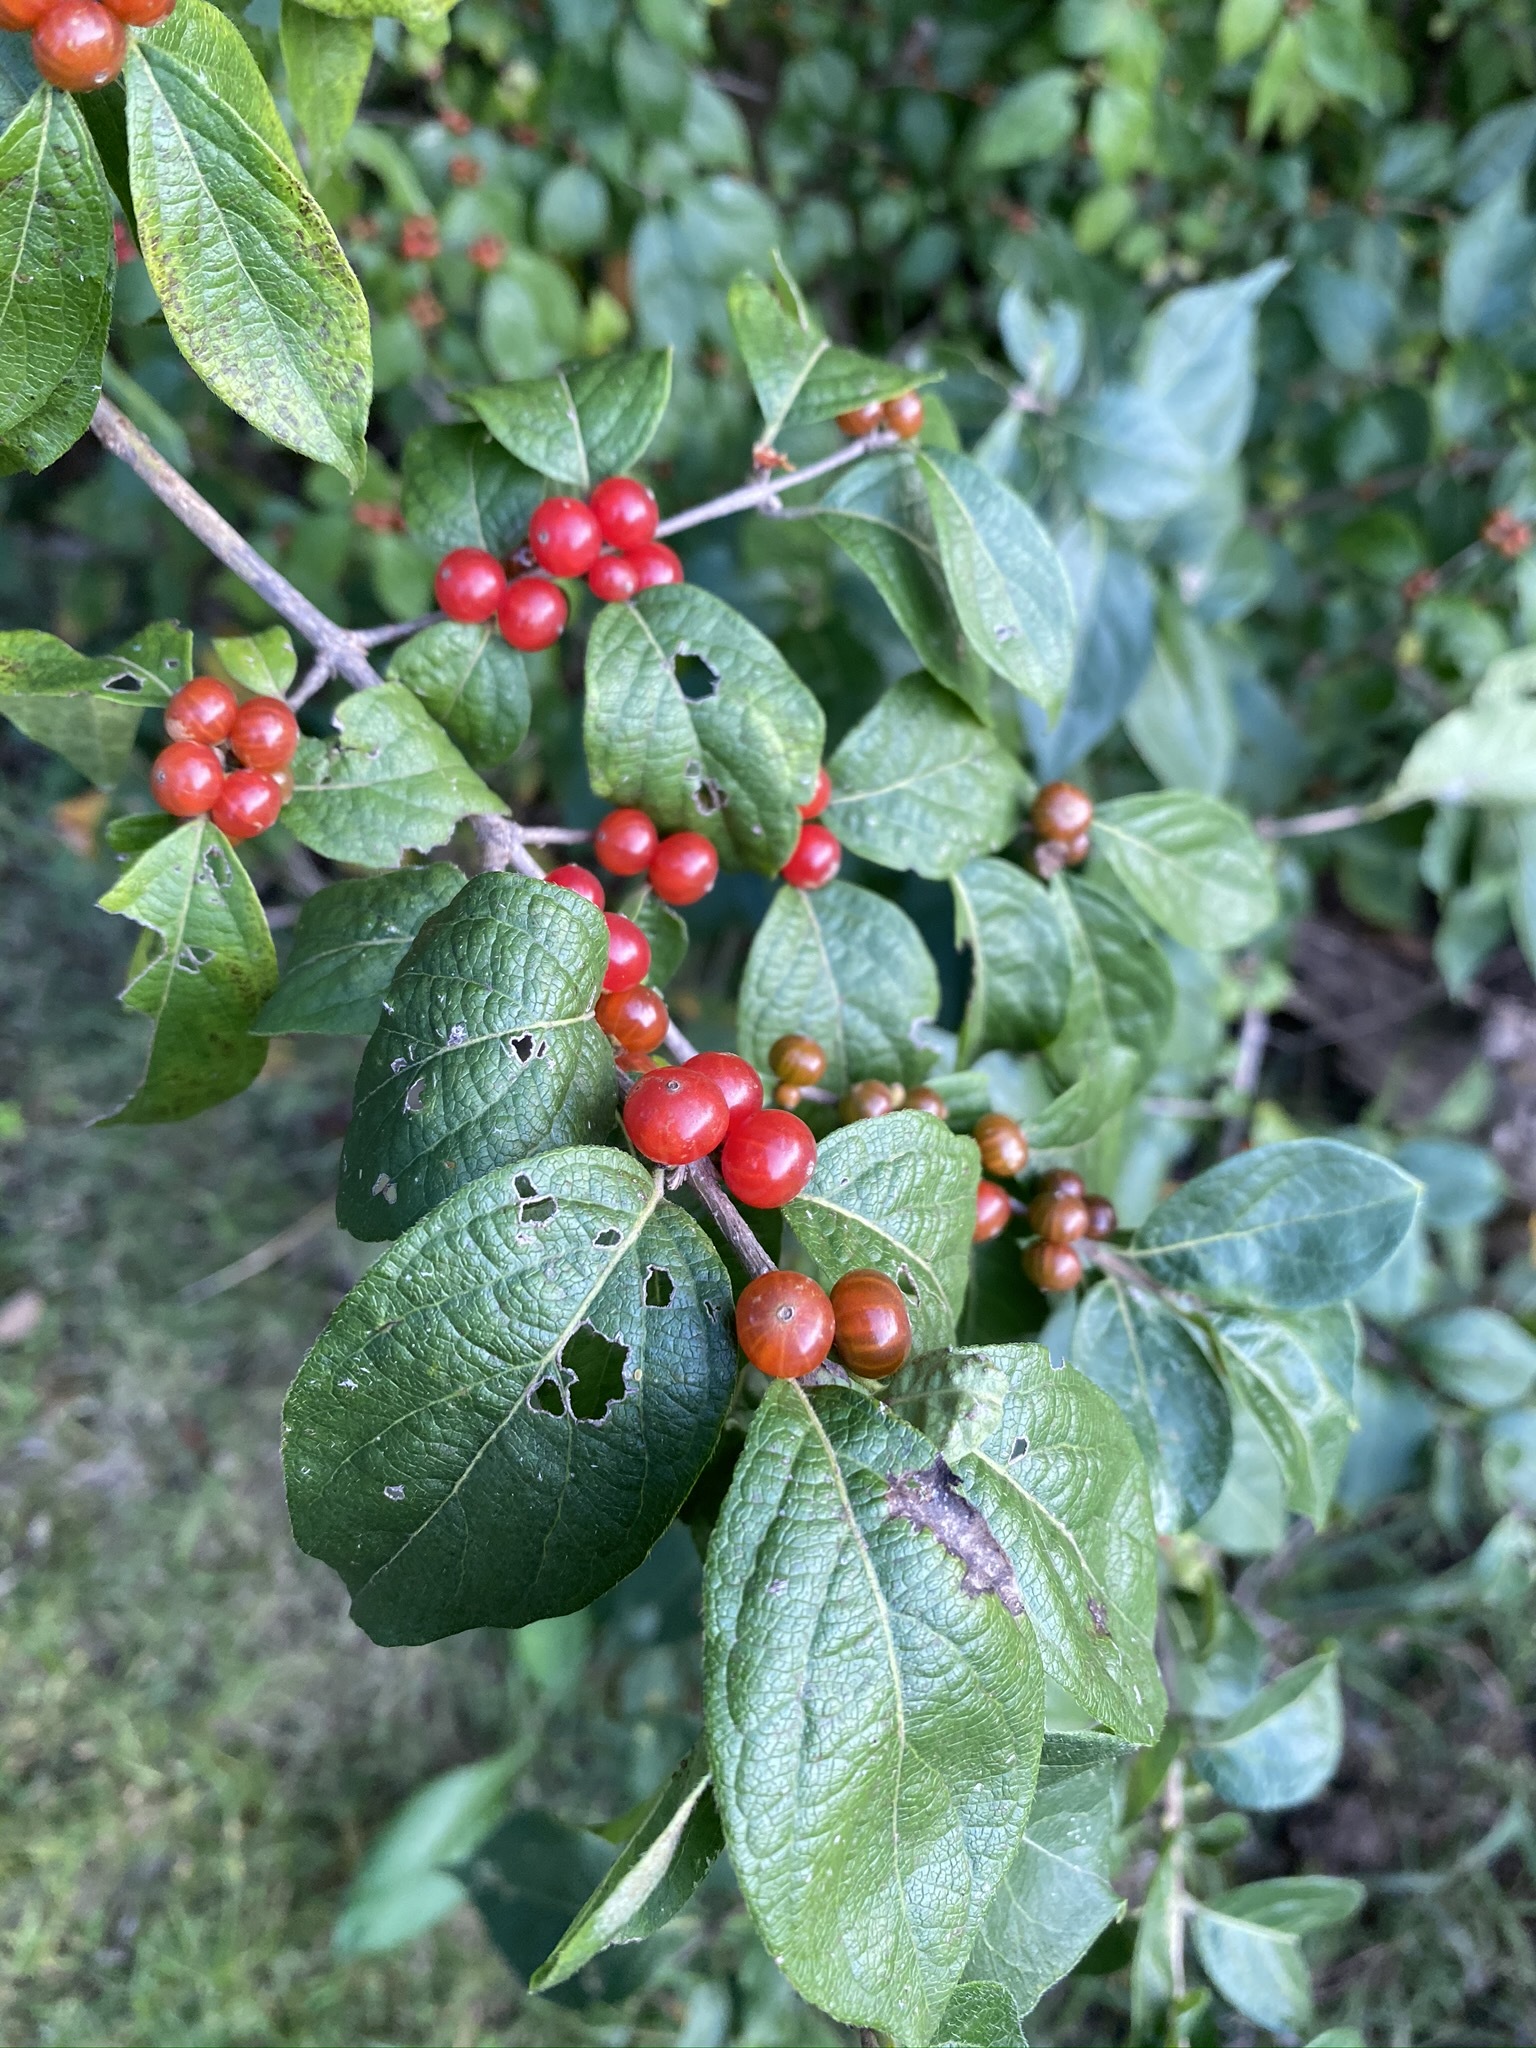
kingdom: Plantae
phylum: Tracheophyta
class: Magnoliopsida
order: Dipsacales
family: Caprifoliaceae
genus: Lonicera
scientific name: Lonicera maackii
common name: Amur honeysuckle
